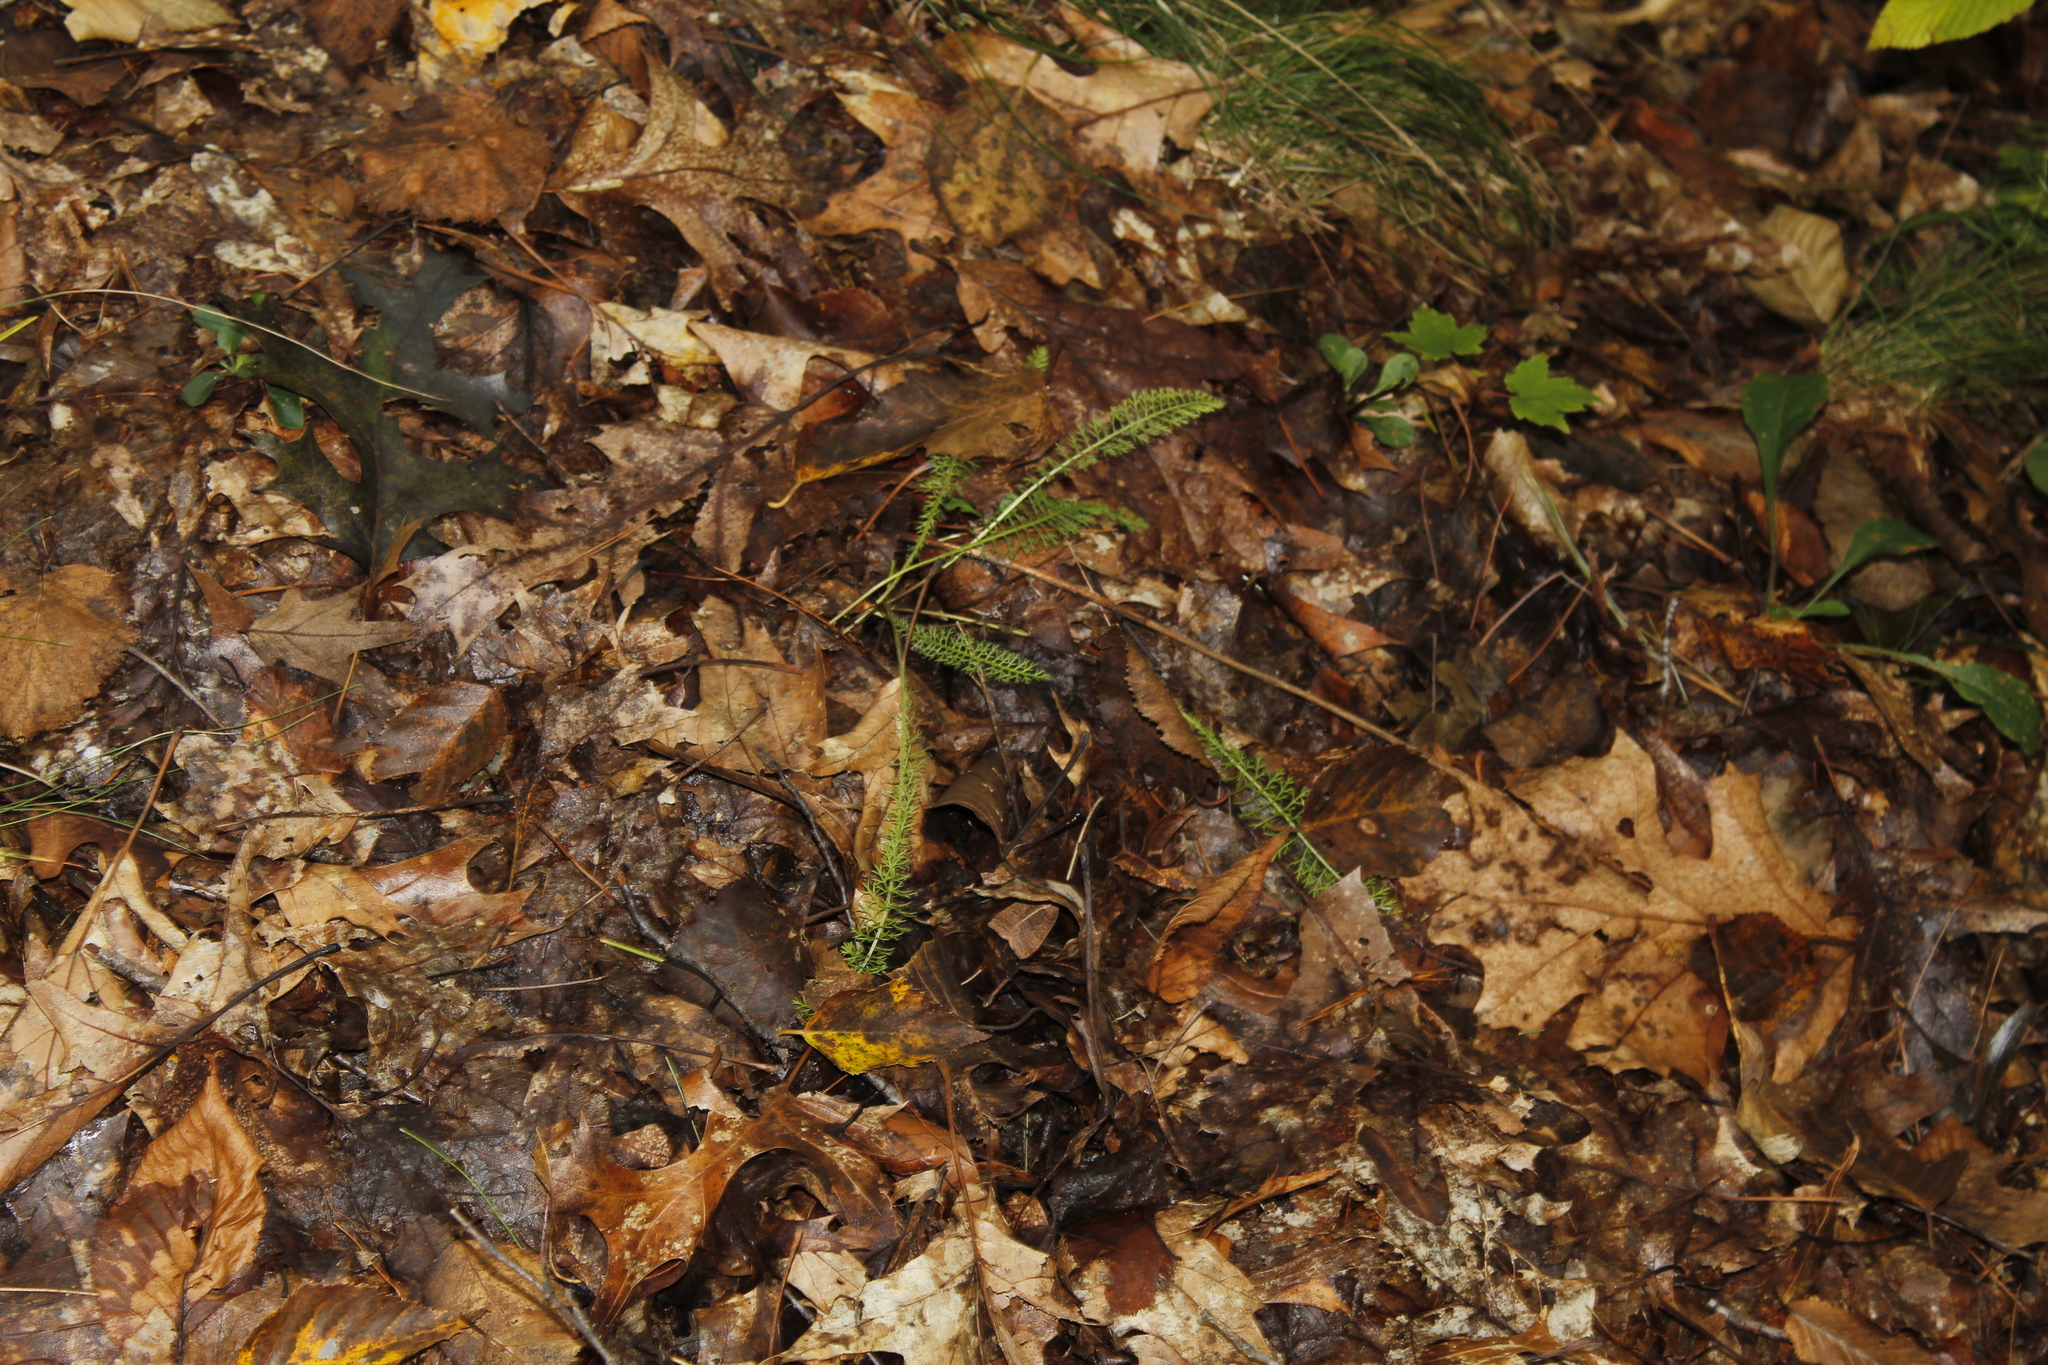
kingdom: Plantae
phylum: Tracheophyta
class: Magnoliopsida
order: Asterales
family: Asteraceae
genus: Achillea
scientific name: Achillea millefolium
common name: Yarrow
